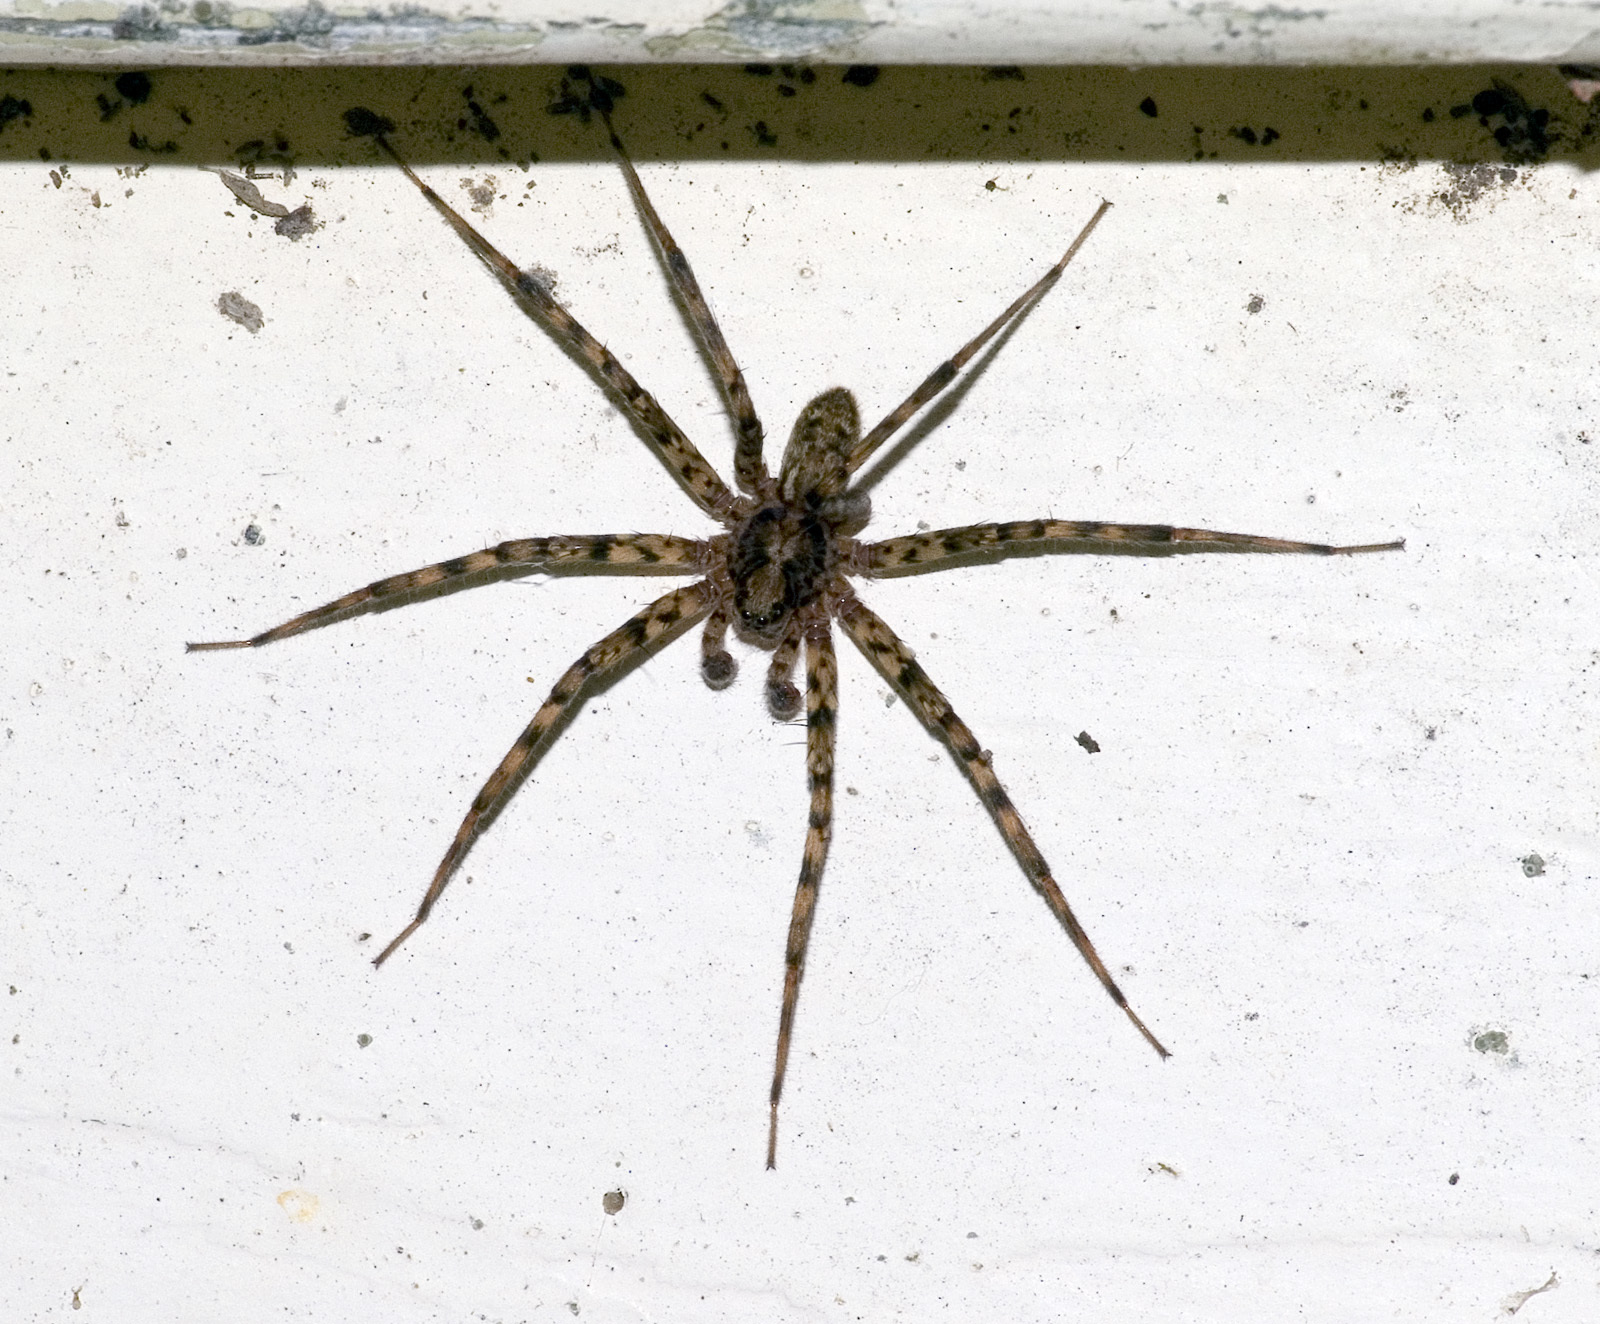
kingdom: Animalia
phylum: Arthropoda
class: Arachnida
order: Araneae
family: Stiphidiidae
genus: Stiphidion
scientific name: Stiphidion facetum
